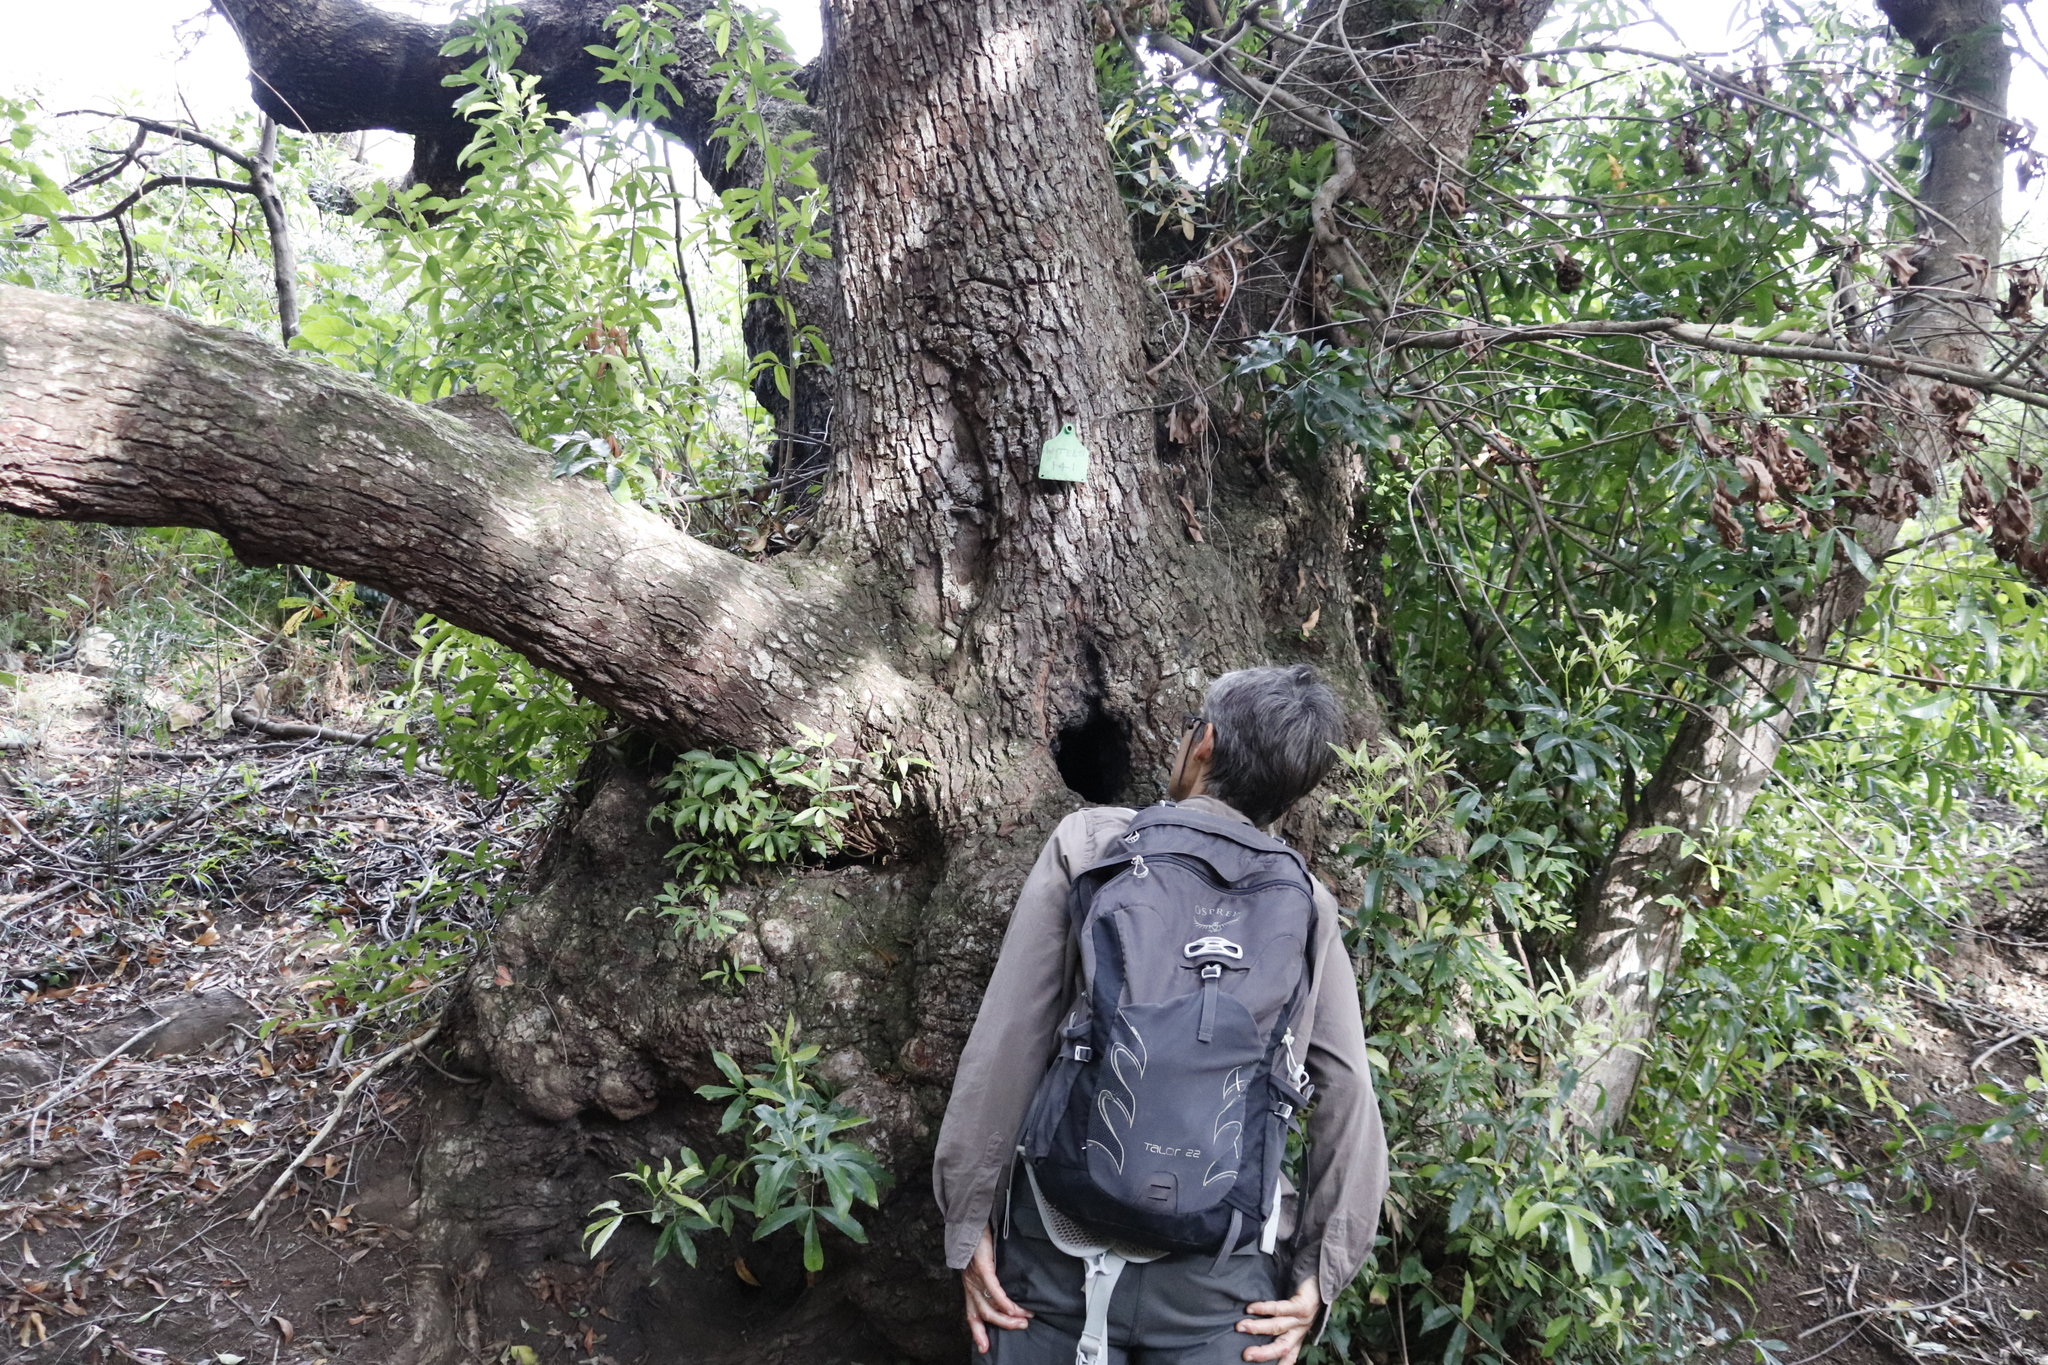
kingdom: Plantae
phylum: Tracheophyta
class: Magnoliopsida
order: Oxalidales
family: Cunoniaceae
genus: Platylophus
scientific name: Platylophus trifoliatus
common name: White alder
